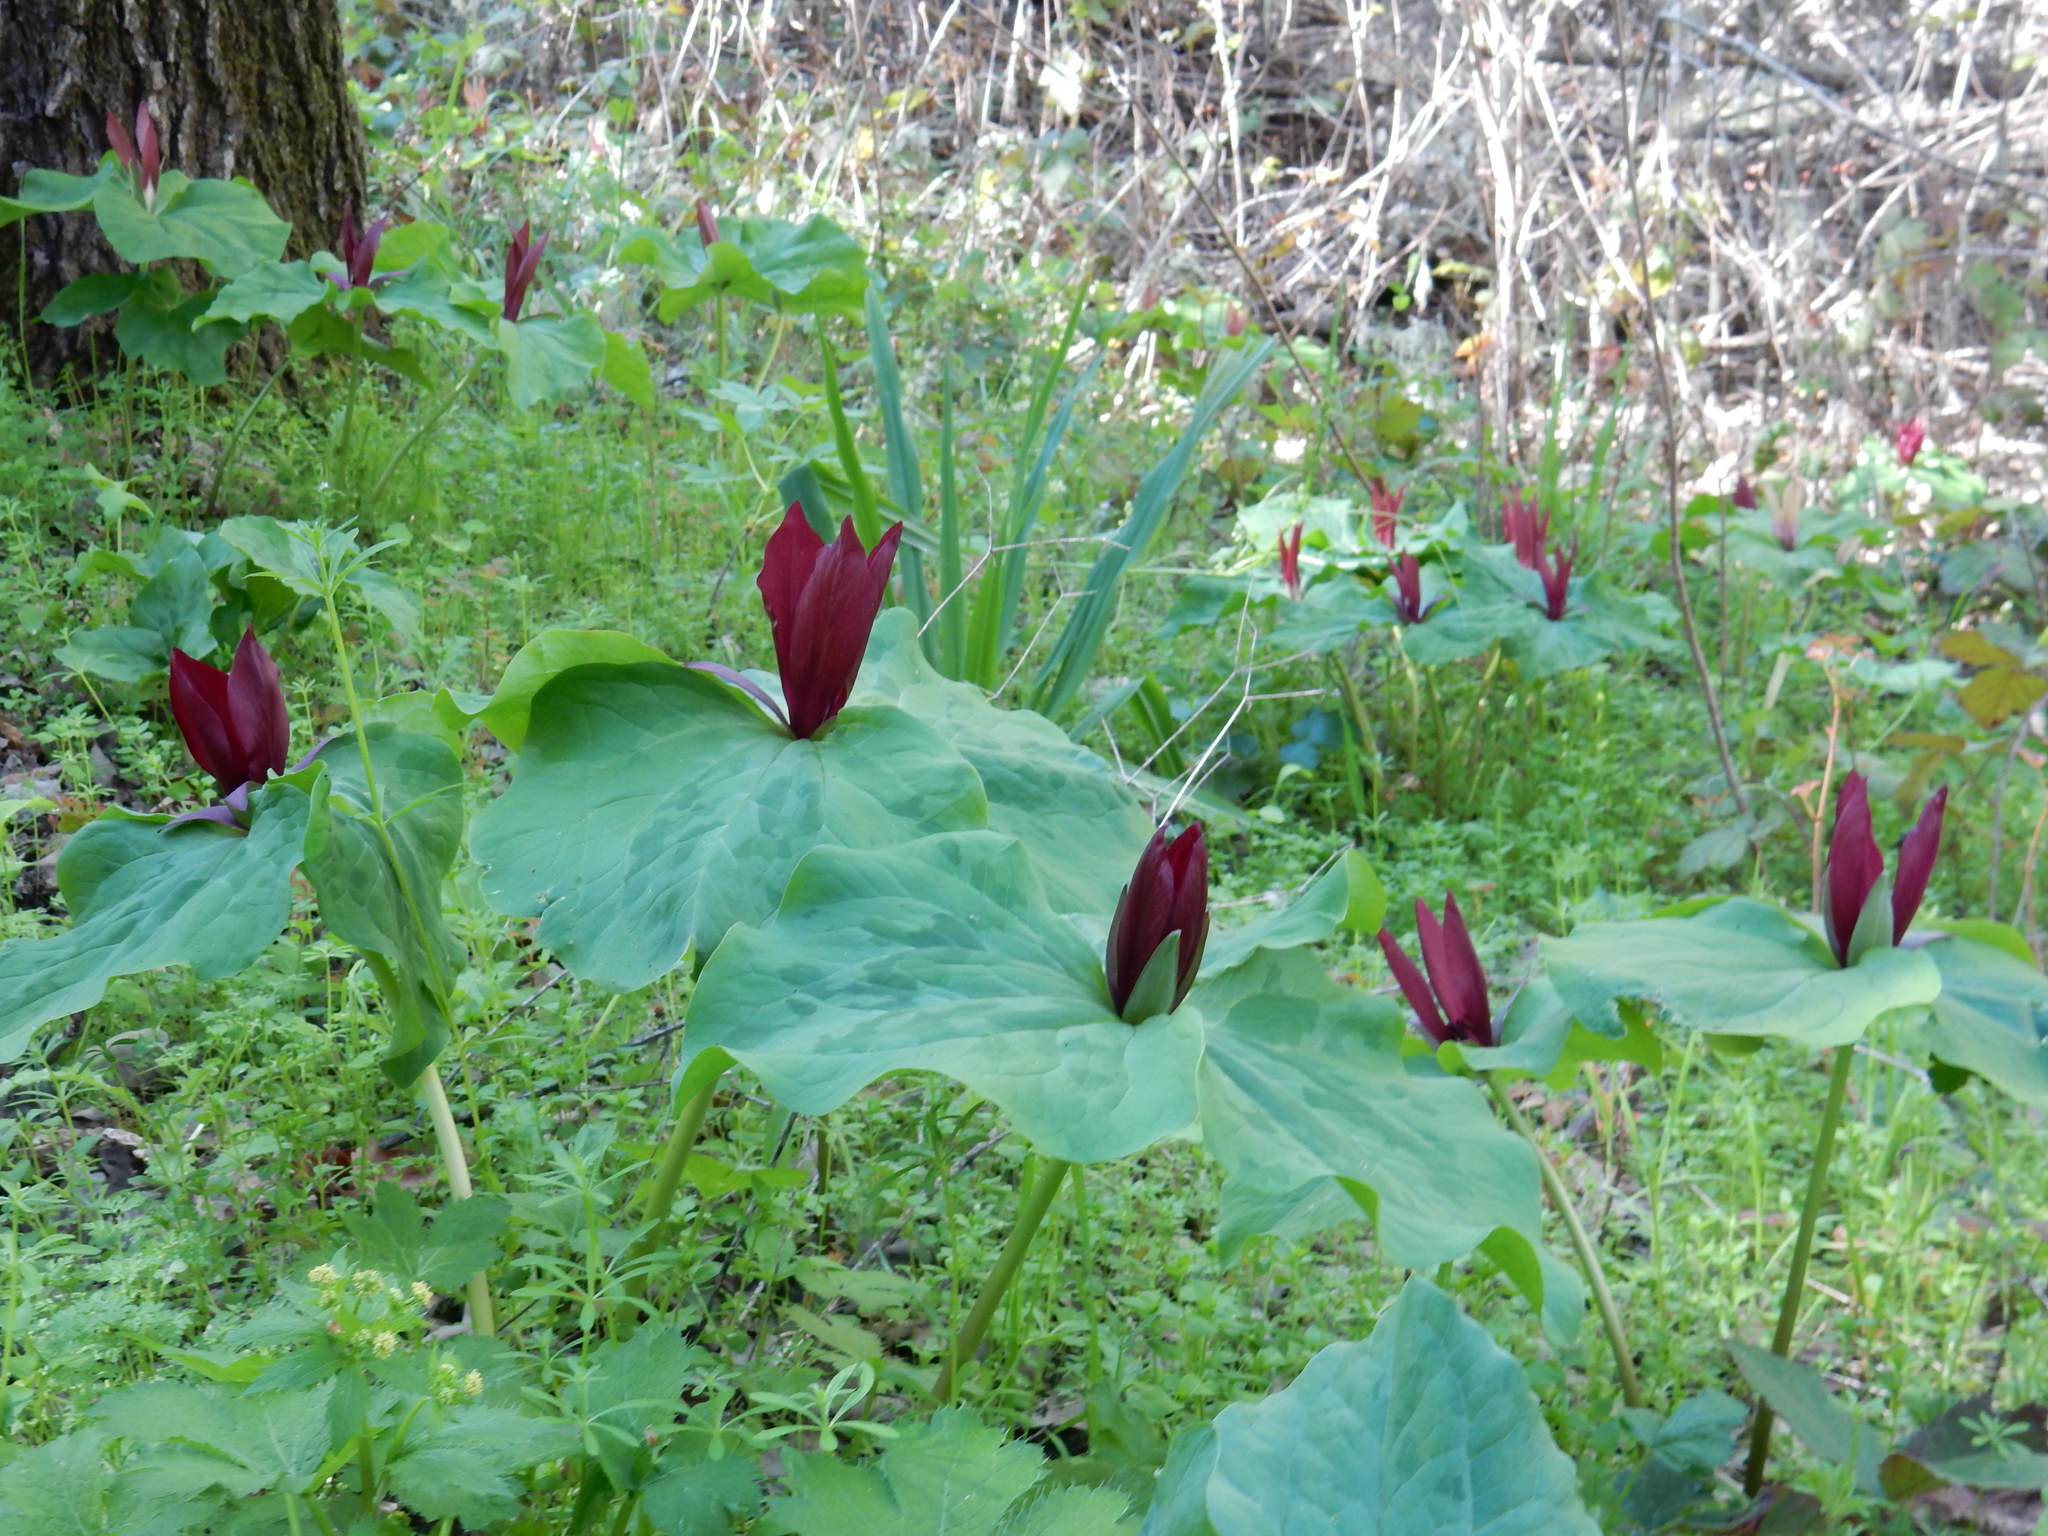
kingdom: Plantae
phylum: Tracheophyta
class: Liliopsida
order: Liliales
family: Melanthiaceae
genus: Trillium
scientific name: Trillium chloropetalum
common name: Giant trillium
